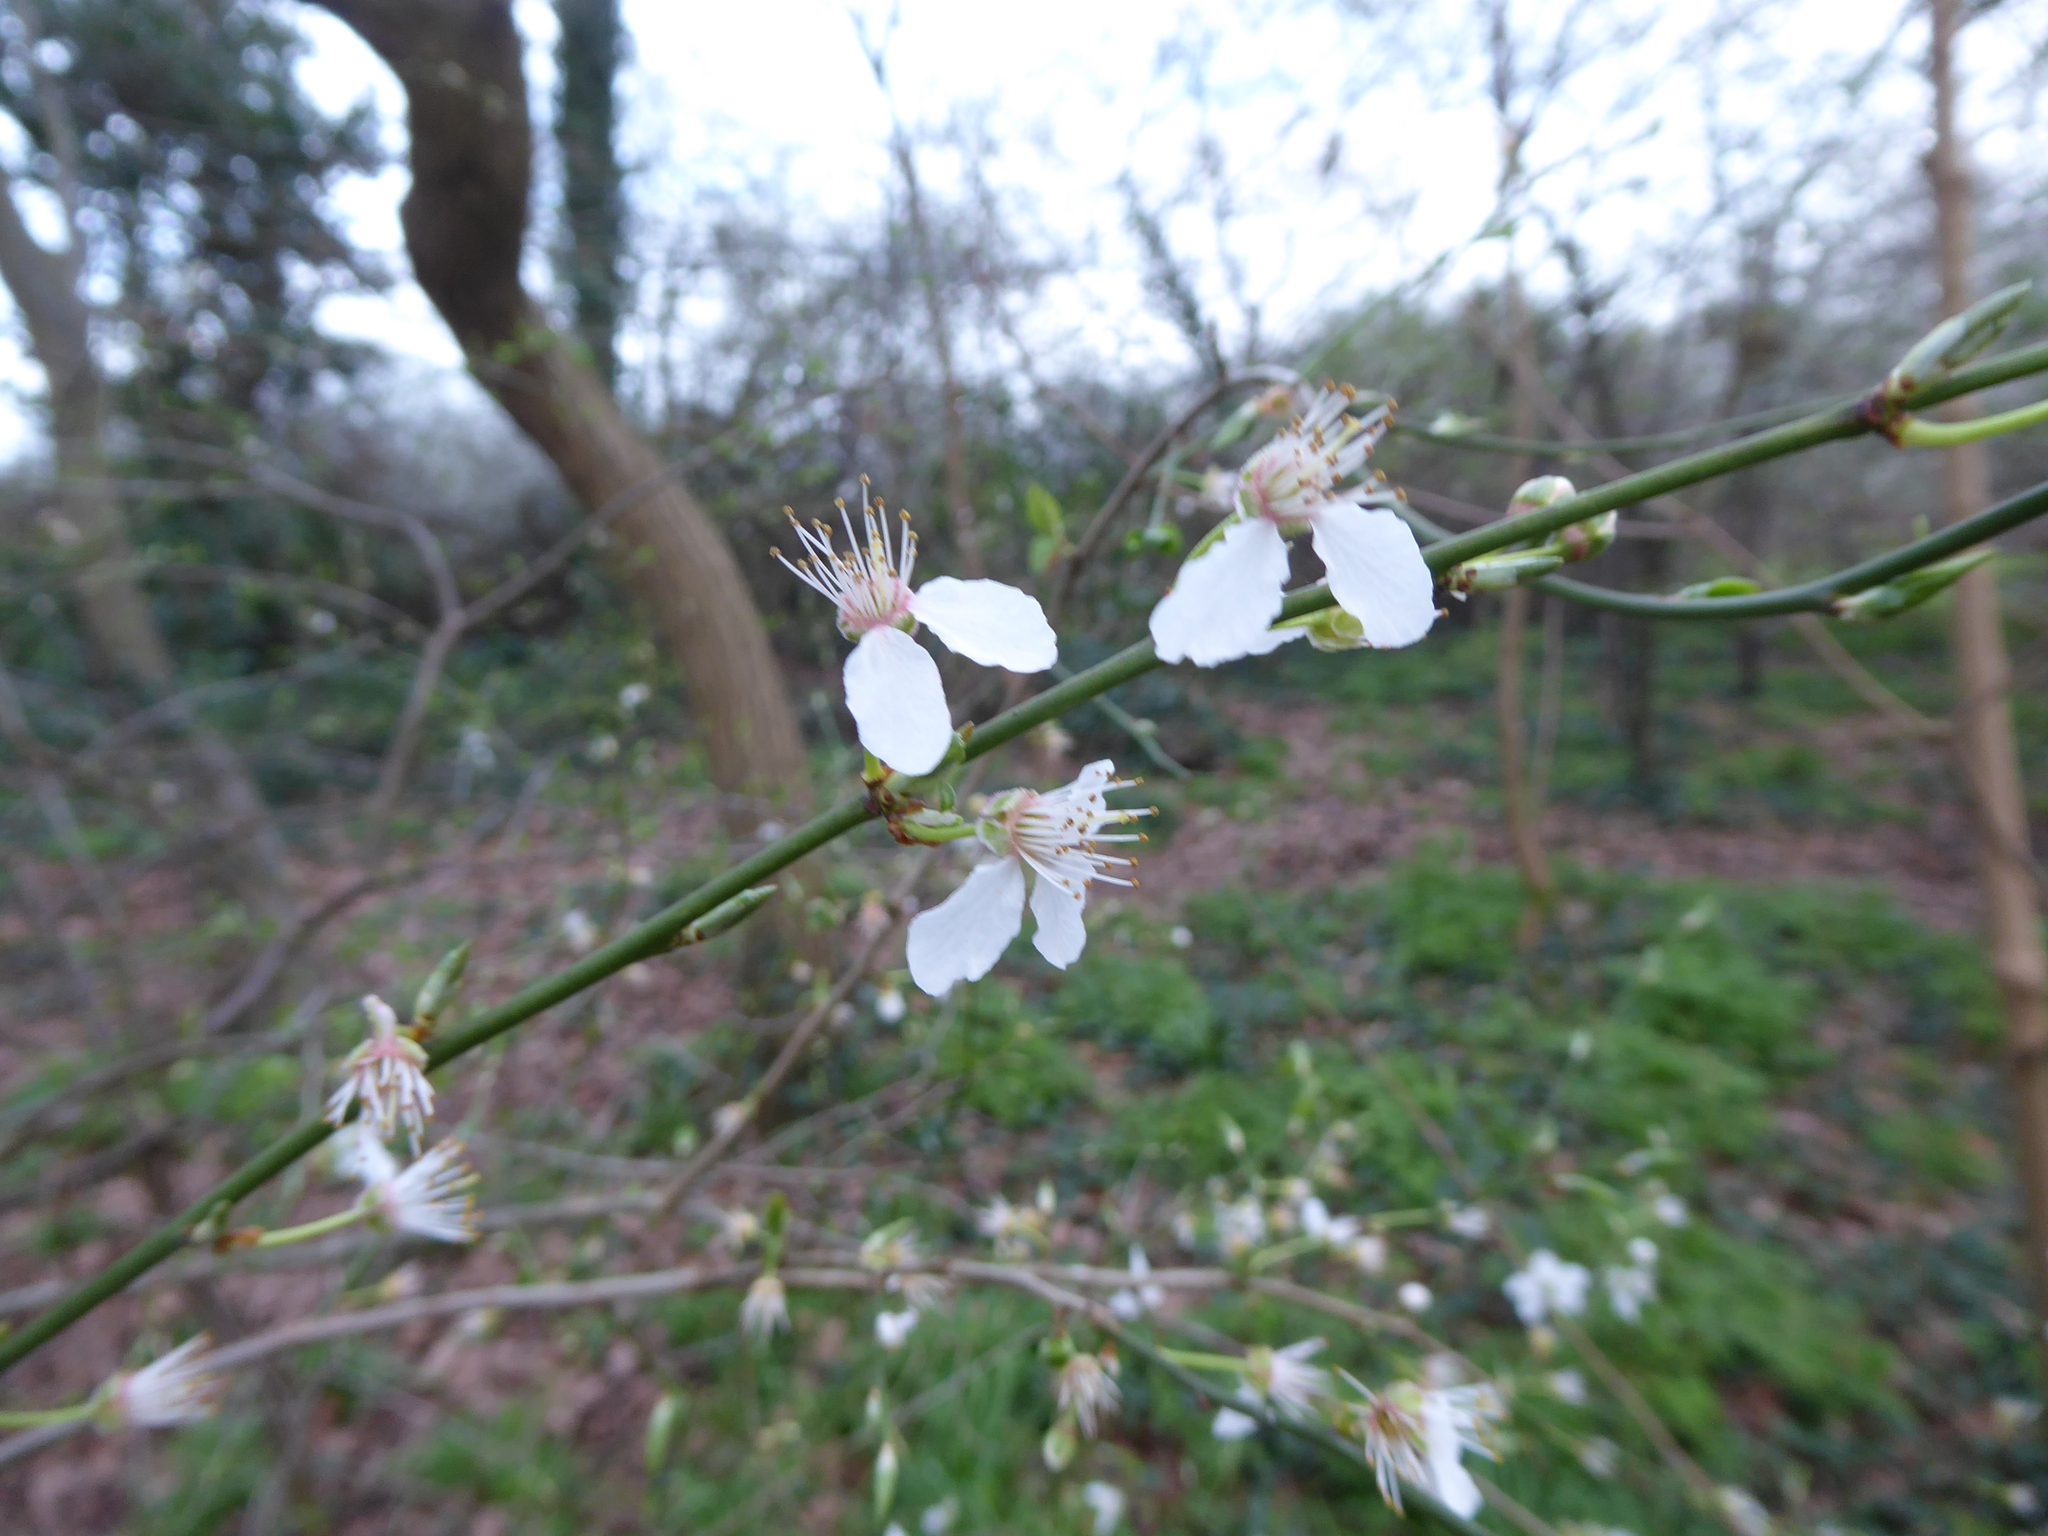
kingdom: Plantae
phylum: Tracheophyta
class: Magnoliopsida
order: Rosales
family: Rosaceae
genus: Prunus
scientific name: Prunus cerasifera
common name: Cherry plum
